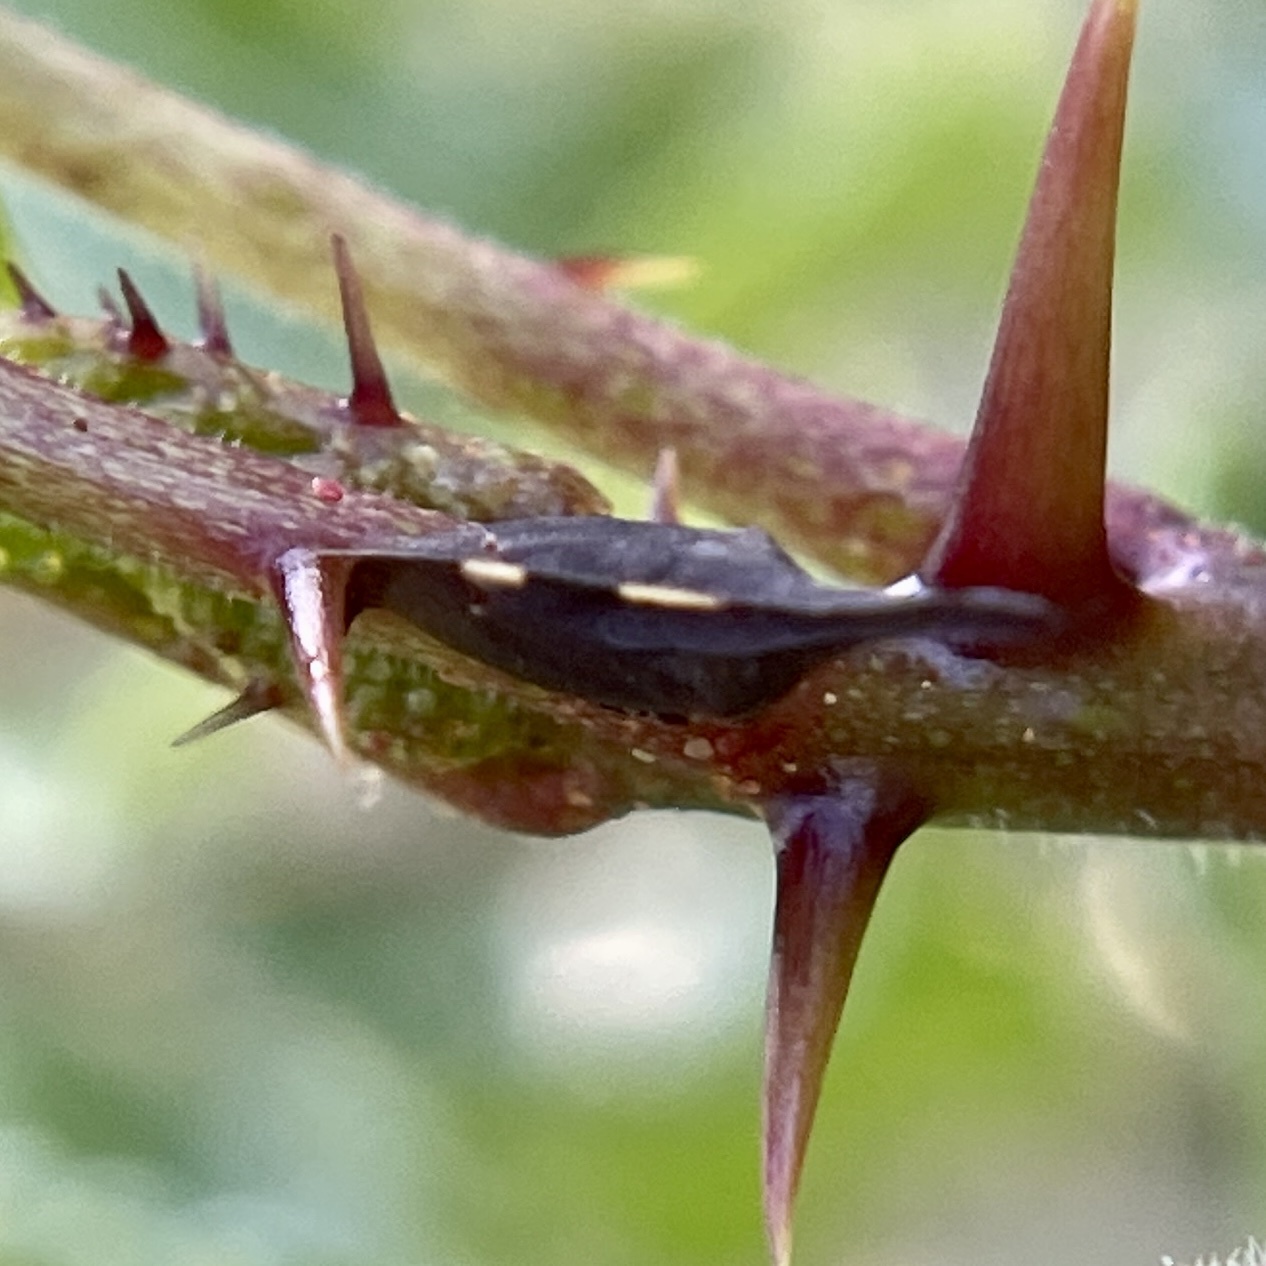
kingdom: Animalia
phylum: Arthropoda
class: Insecta
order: Hemiptera
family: Membracidae
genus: Enchenopa
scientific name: Enchenopa
